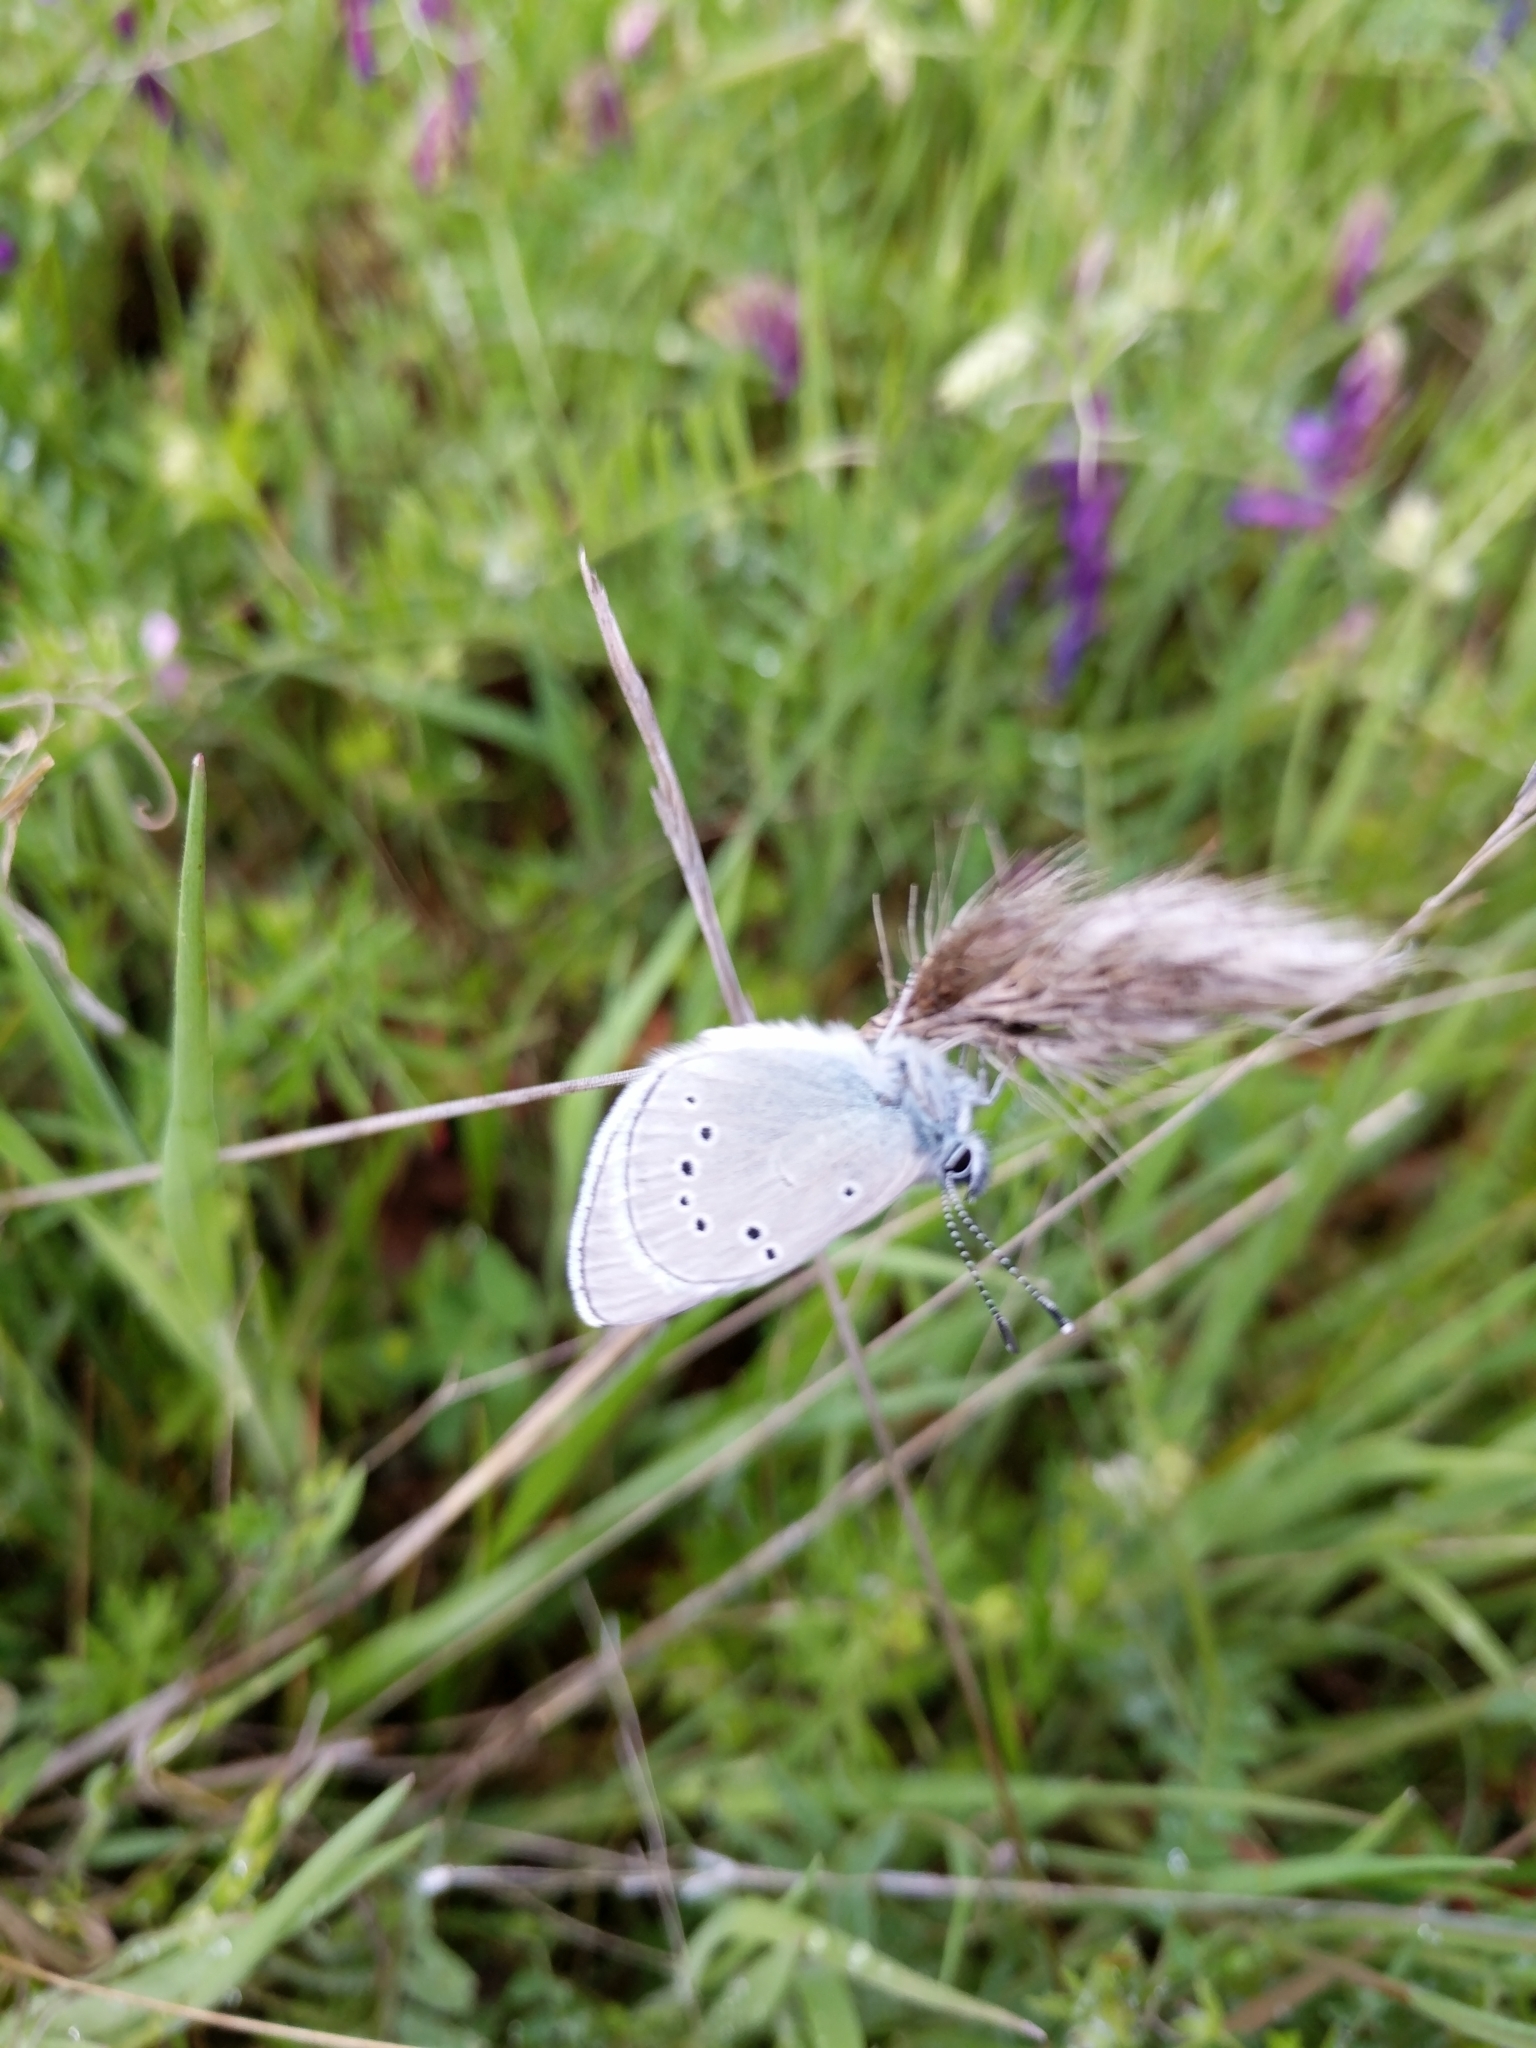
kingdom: Animalia
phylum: Arthropoda
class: Insecta
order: Lepidoptera
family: Lycaenidae
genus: Glaucopsyche
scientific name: Glaucopsyche lygdamus
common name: Silvery blue
